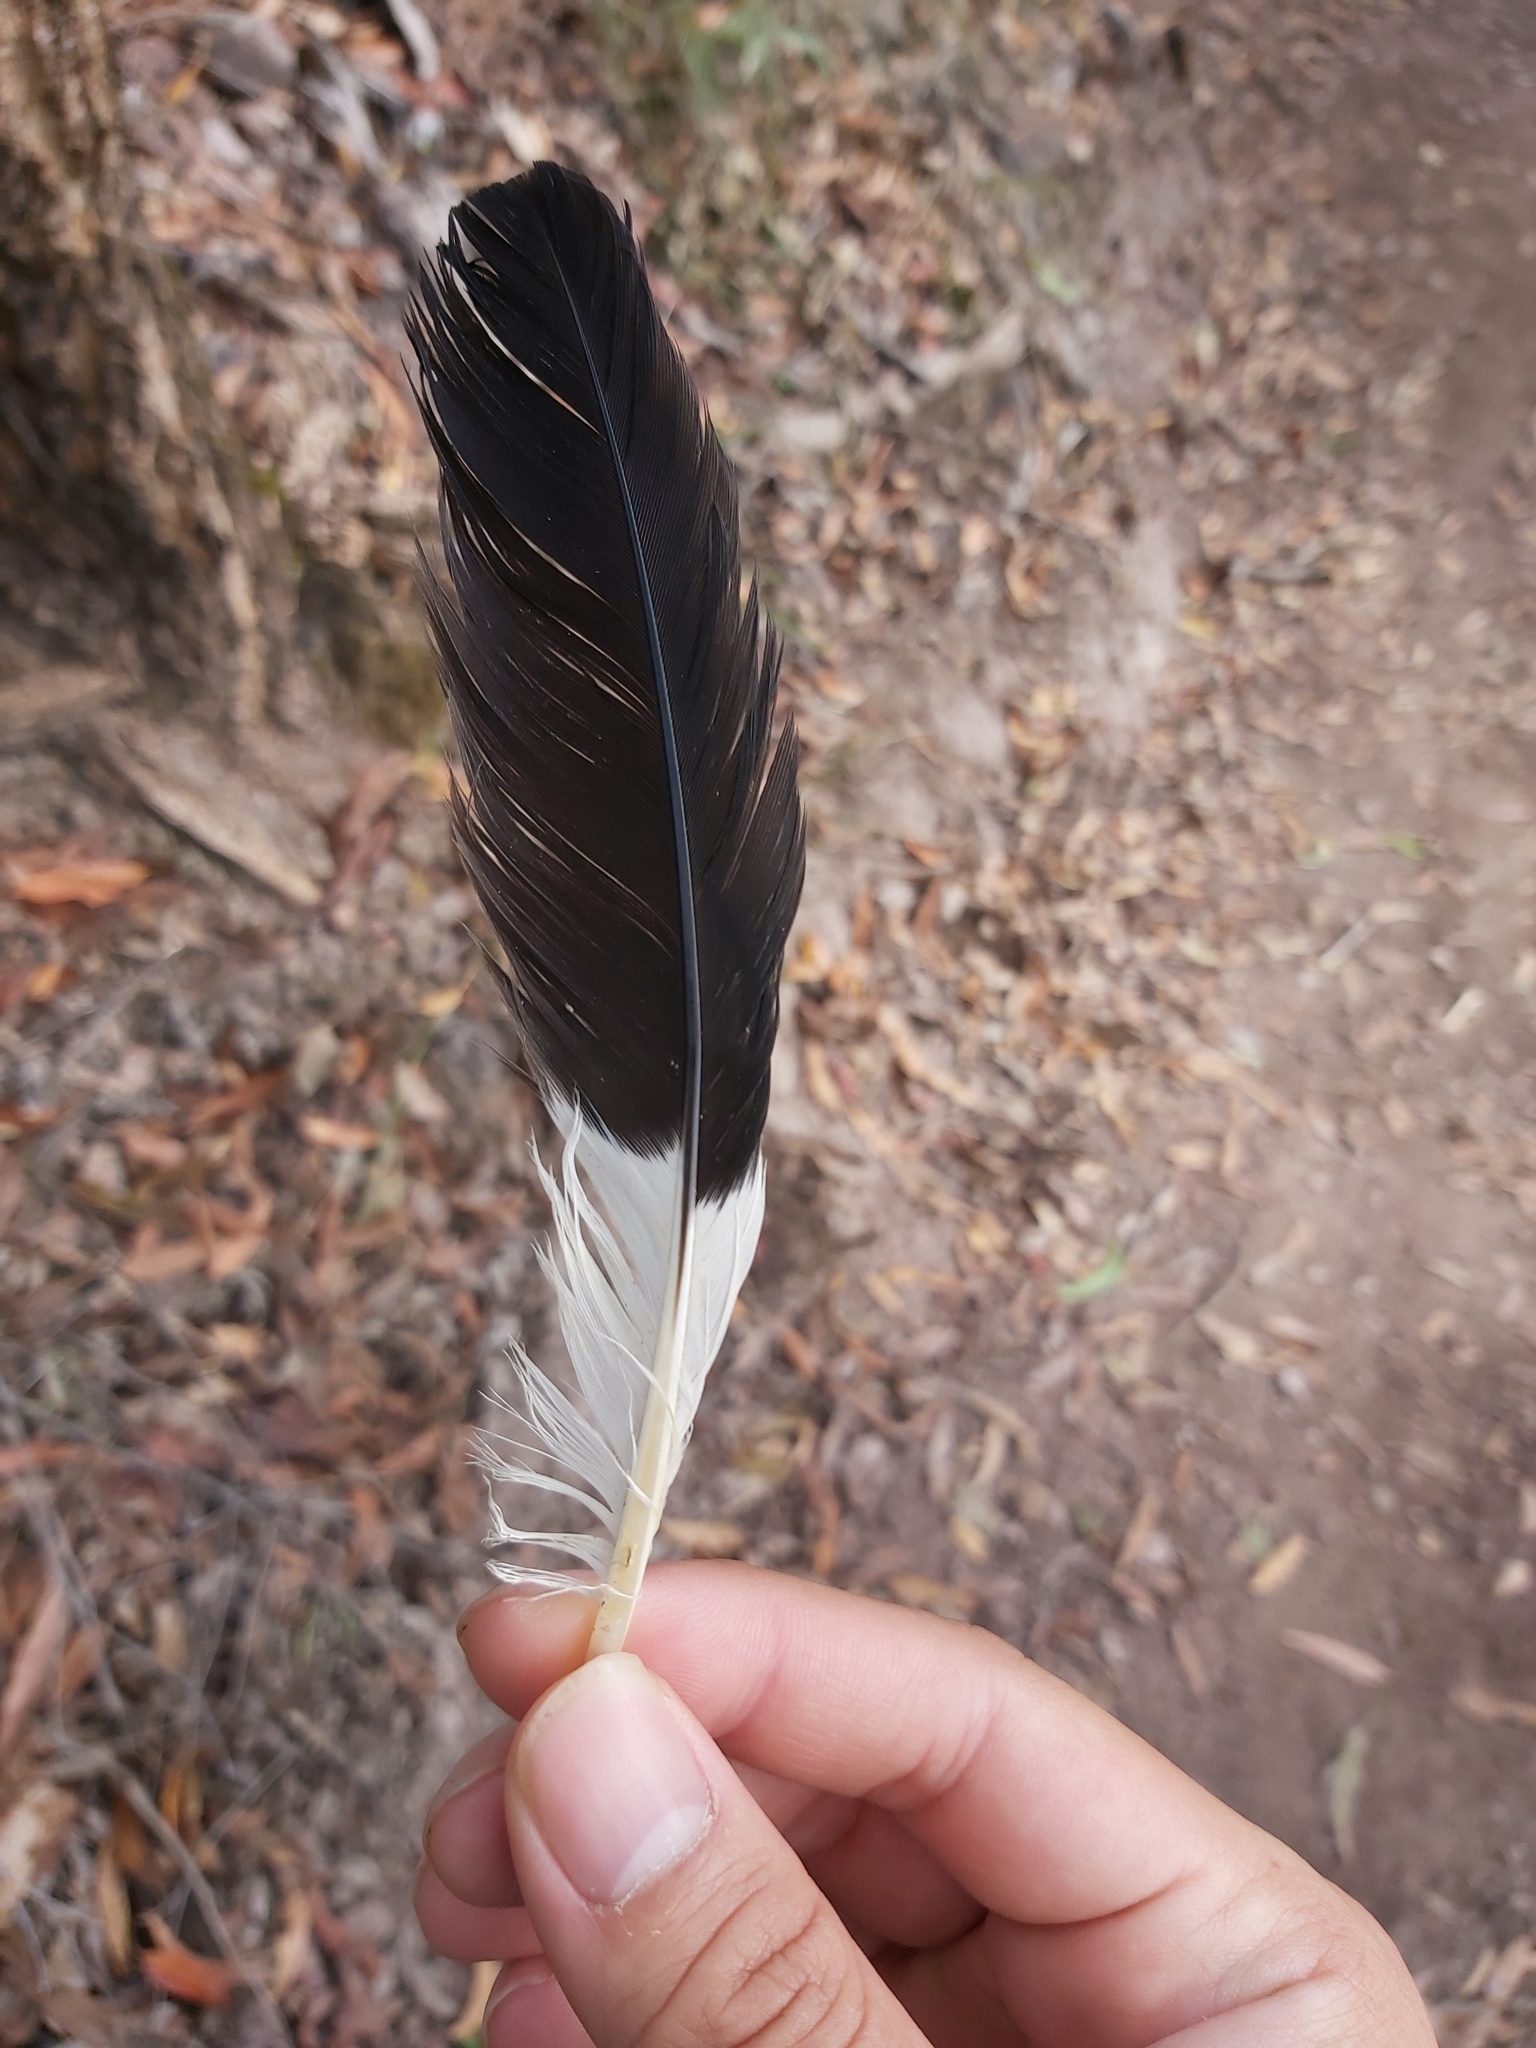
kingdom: Animalia
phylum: Chordata
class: Aves
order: Passeriformes
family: Cracticidae
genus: Strepera
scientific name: Strepera graculina
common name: Pied currawong
